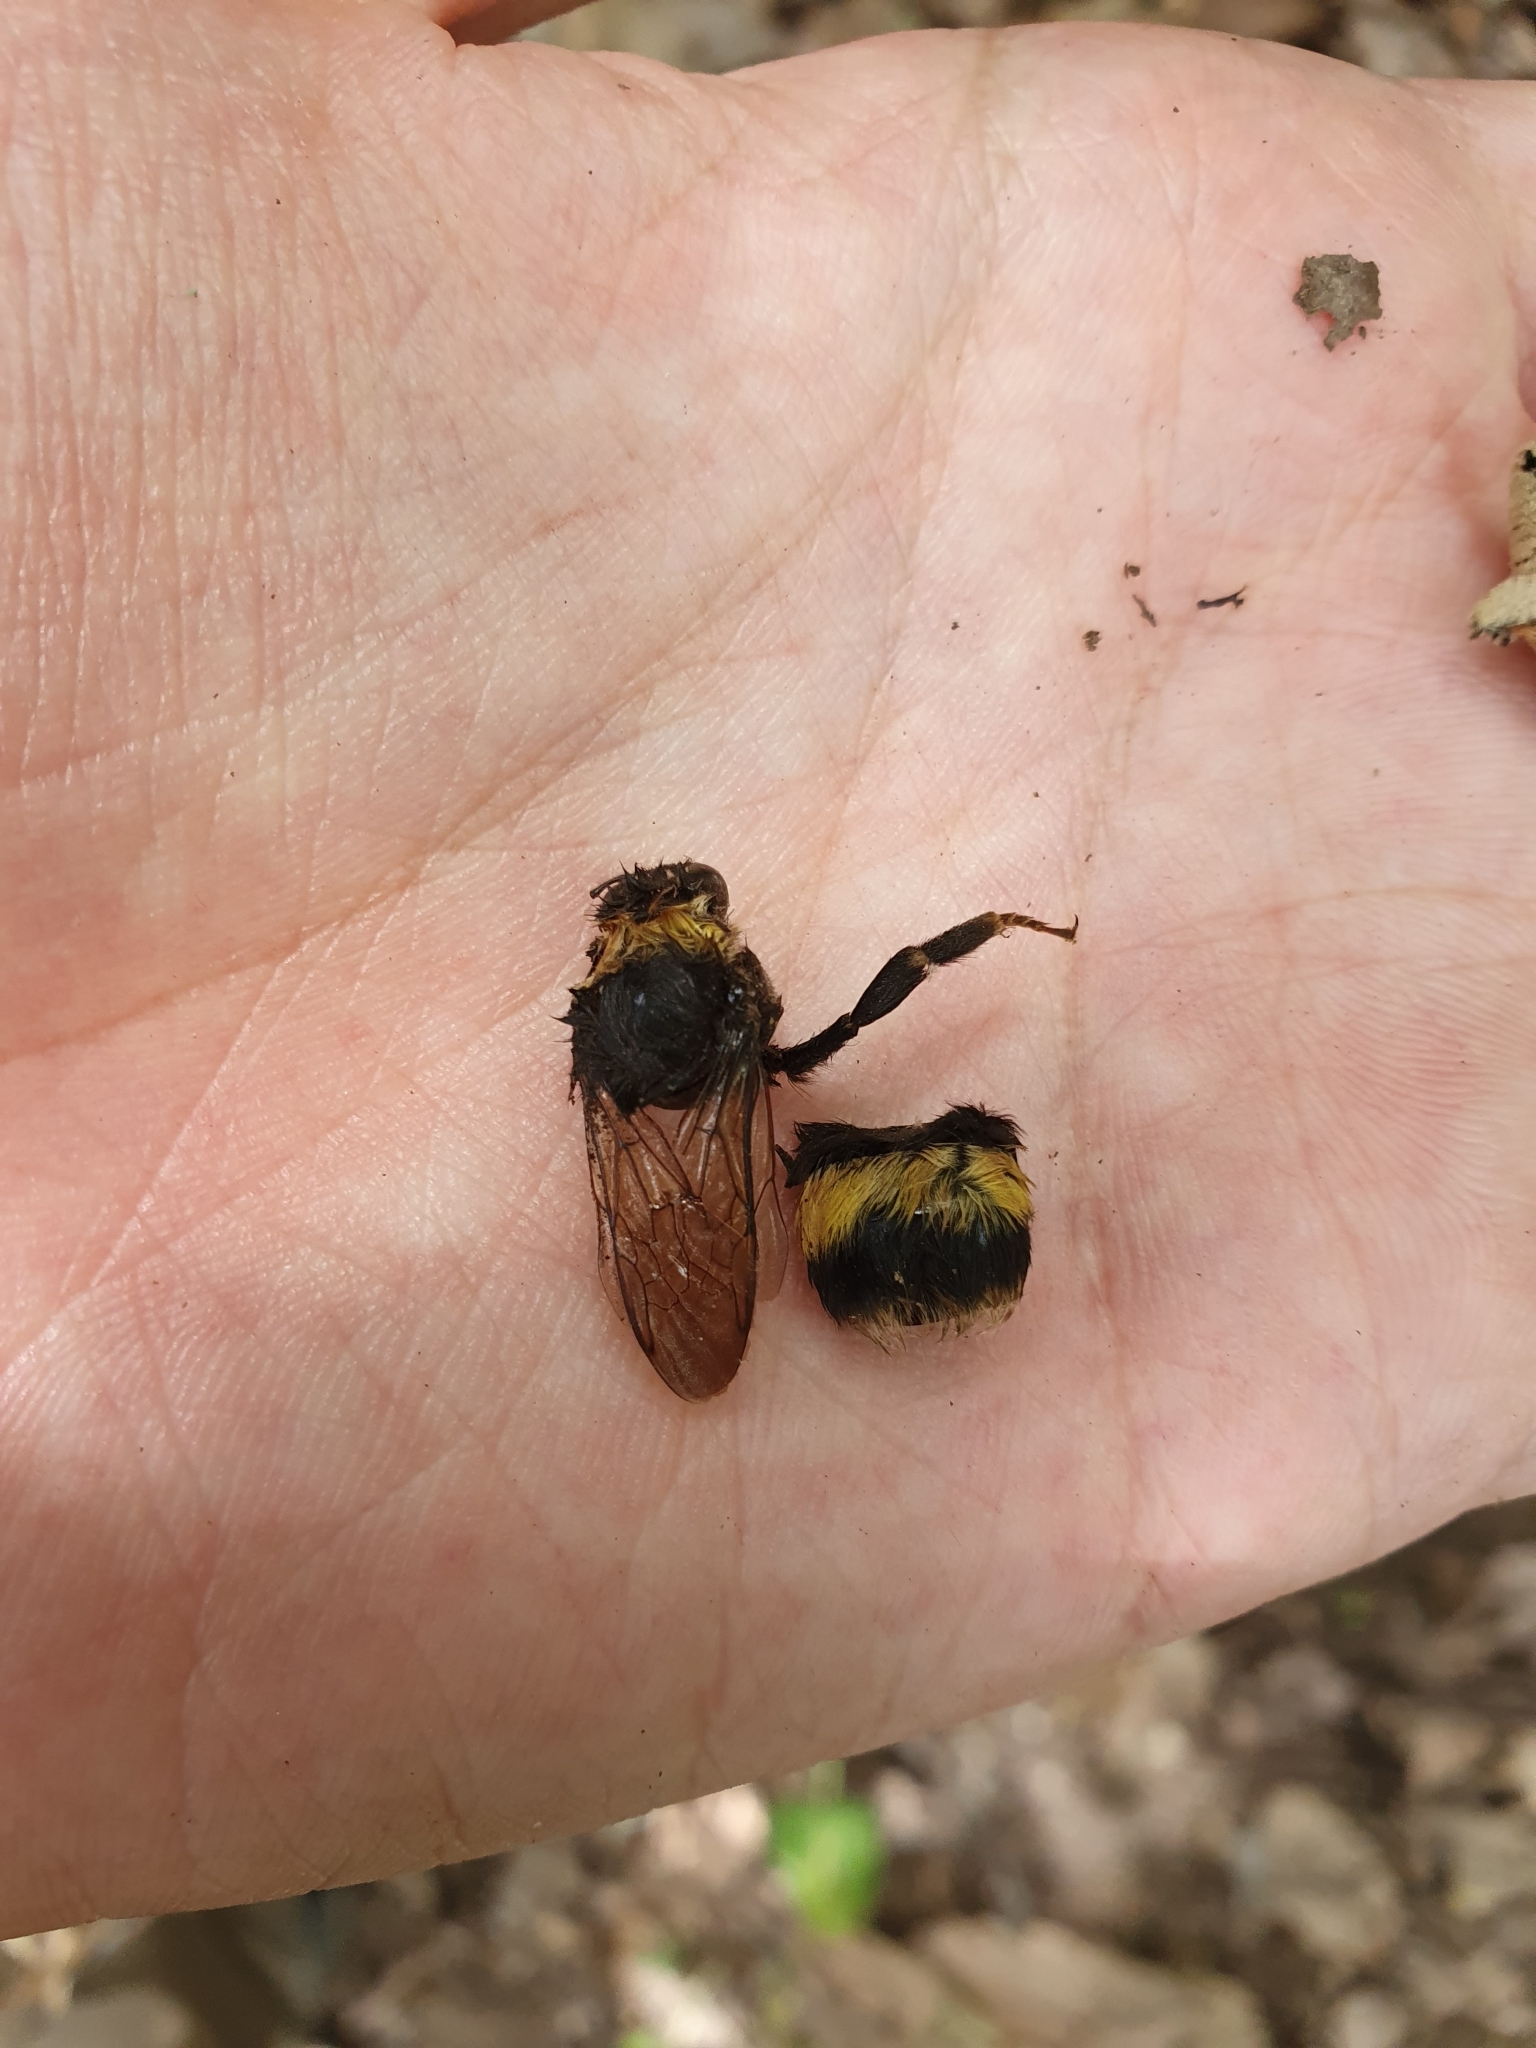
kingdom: Animalia
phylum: Arthropoda
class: Insecta
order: Hymenoptera
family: Apidae
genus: Bombus
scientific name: Bombus terrestris
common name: Buff-tailed bumblebee
